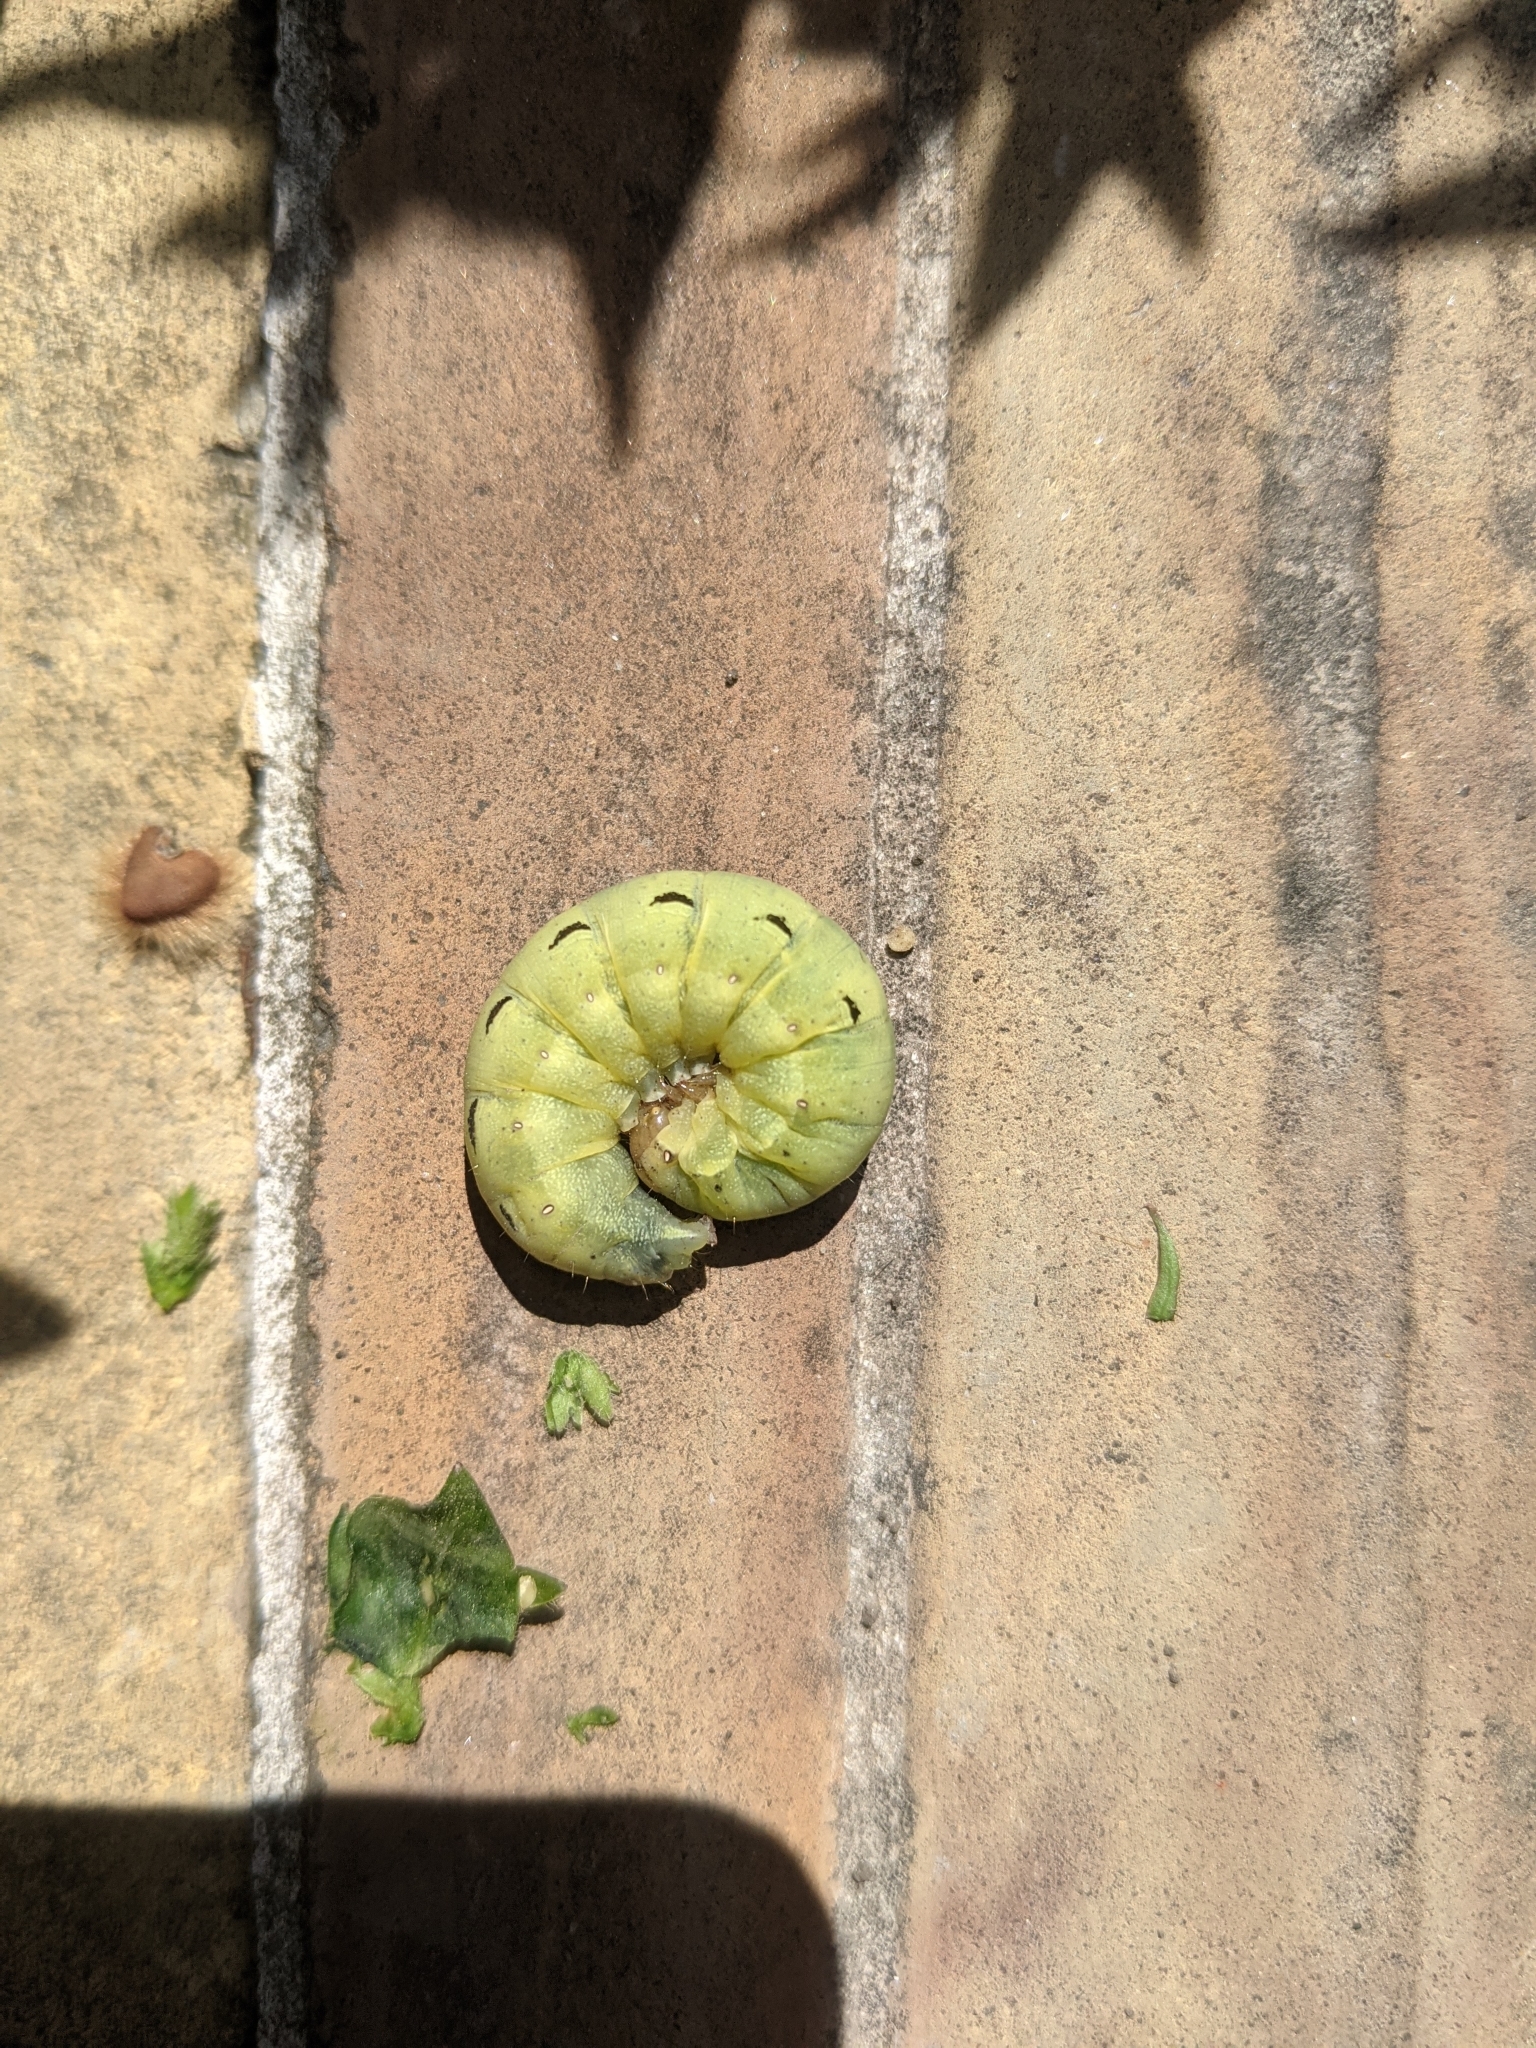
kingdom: Animalia
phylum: Arthropoda
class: Insecta
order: Lepidoptera
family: Noctuidae
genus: Noctua
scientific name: Noctua pronuba
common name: Large yellow underwing
